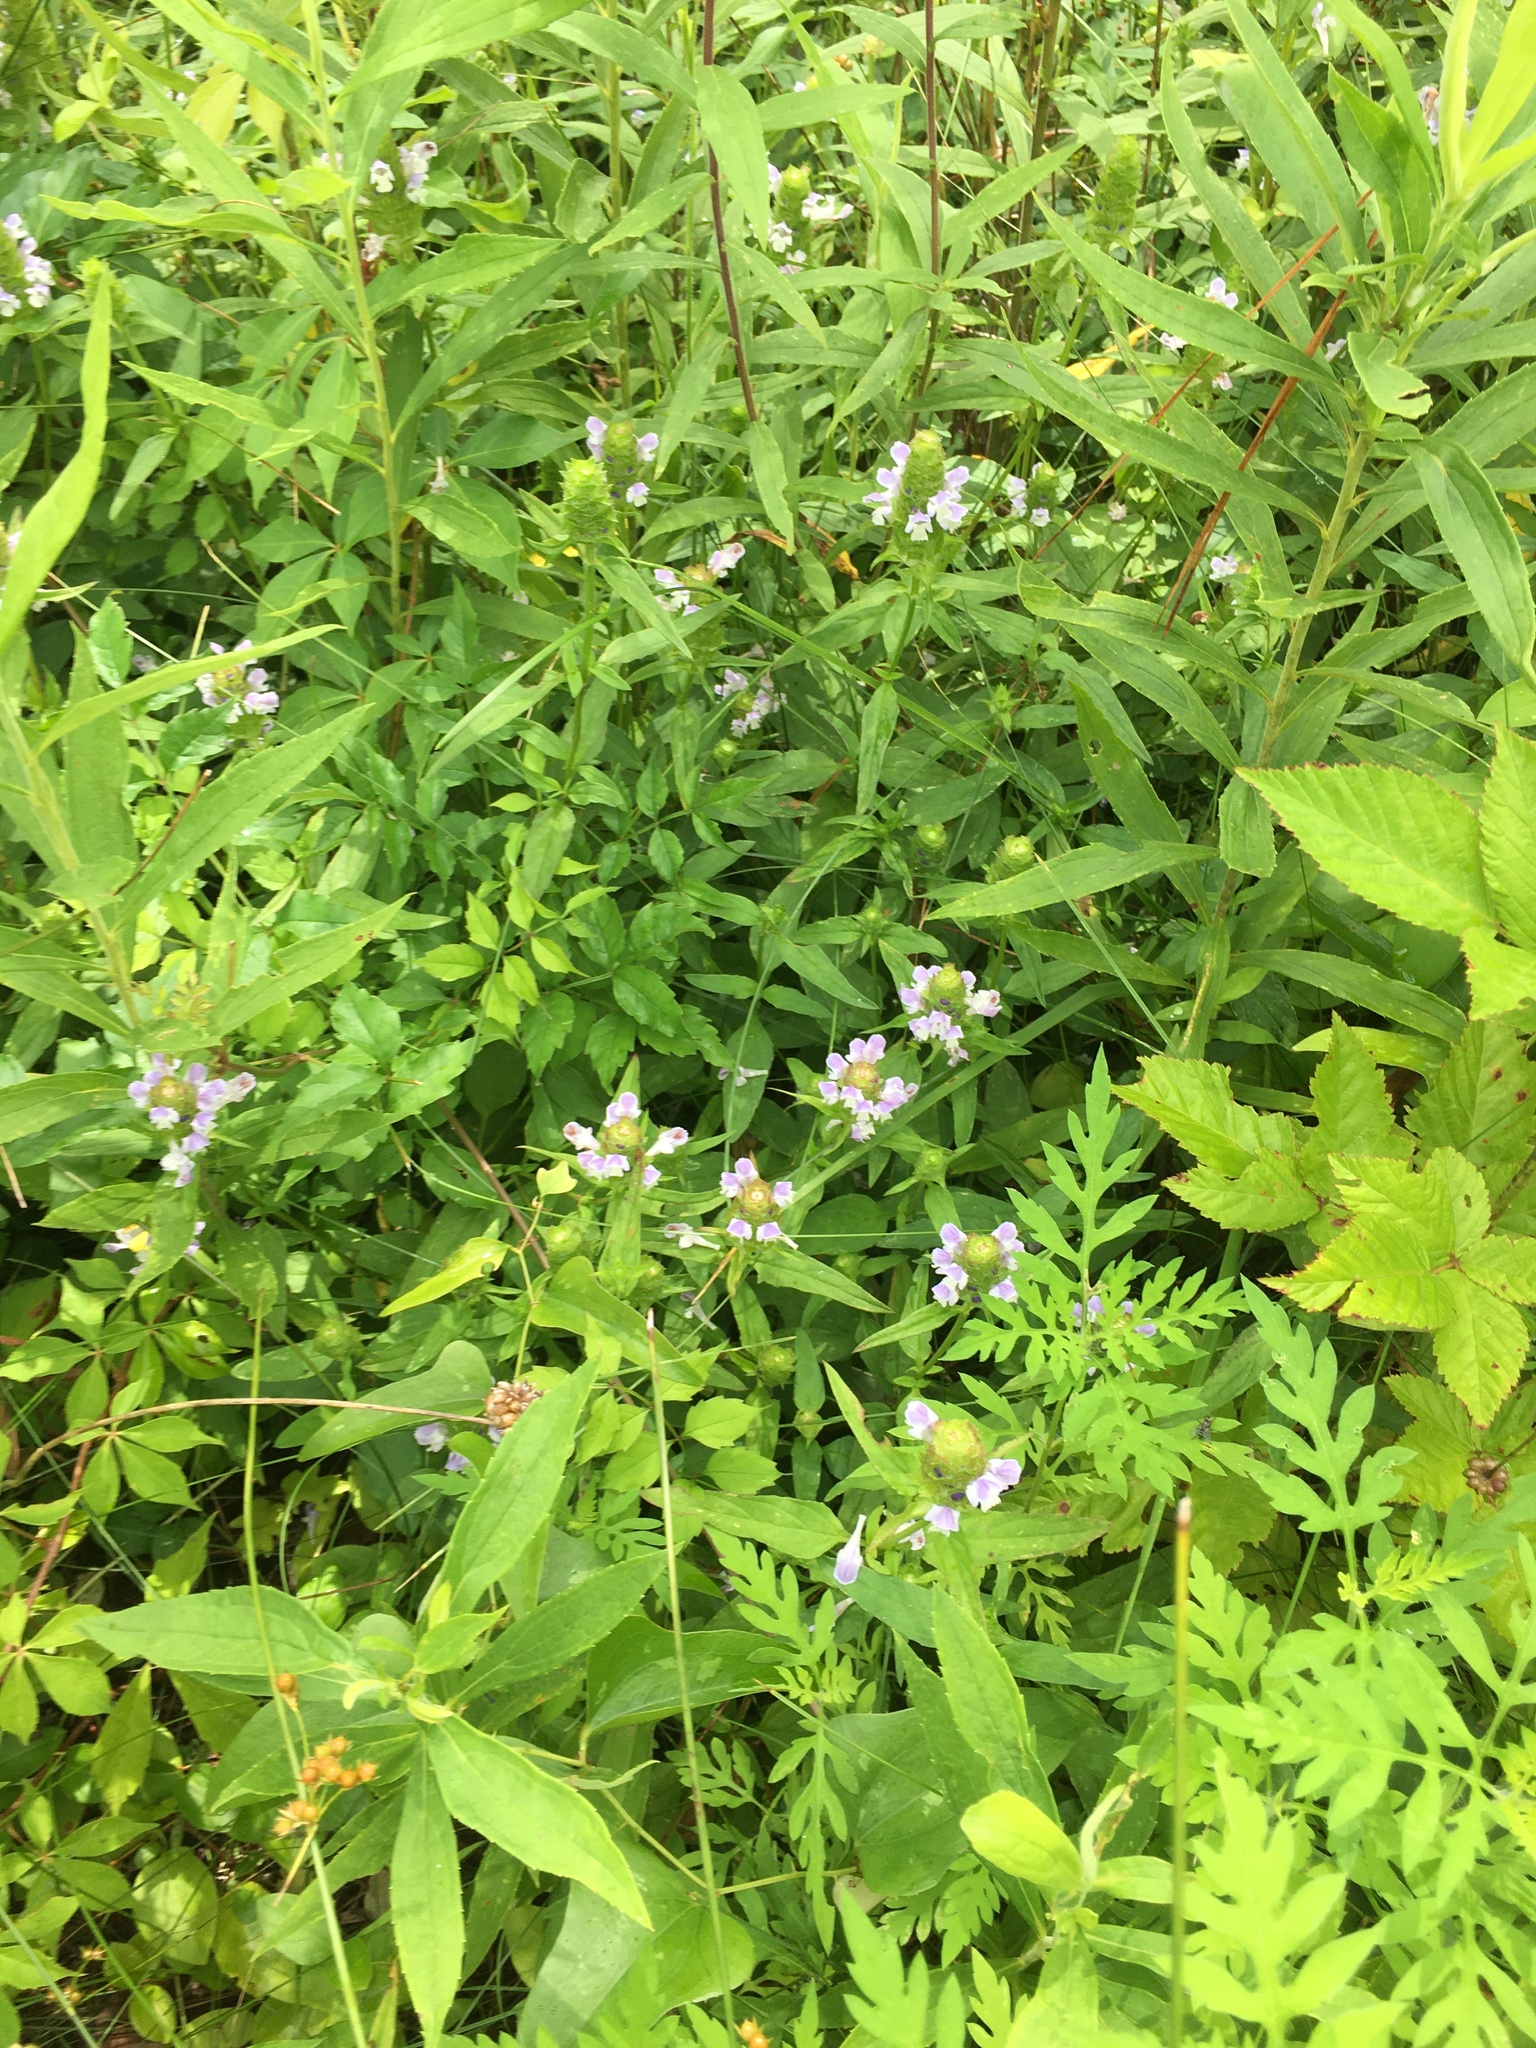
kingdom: Plantae
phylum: Tracheophyta
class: Magnoliopsida
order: Lamiales
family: Lamiaceae
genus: Prunella
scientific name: Prunella vulgaris
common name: Heal-all
